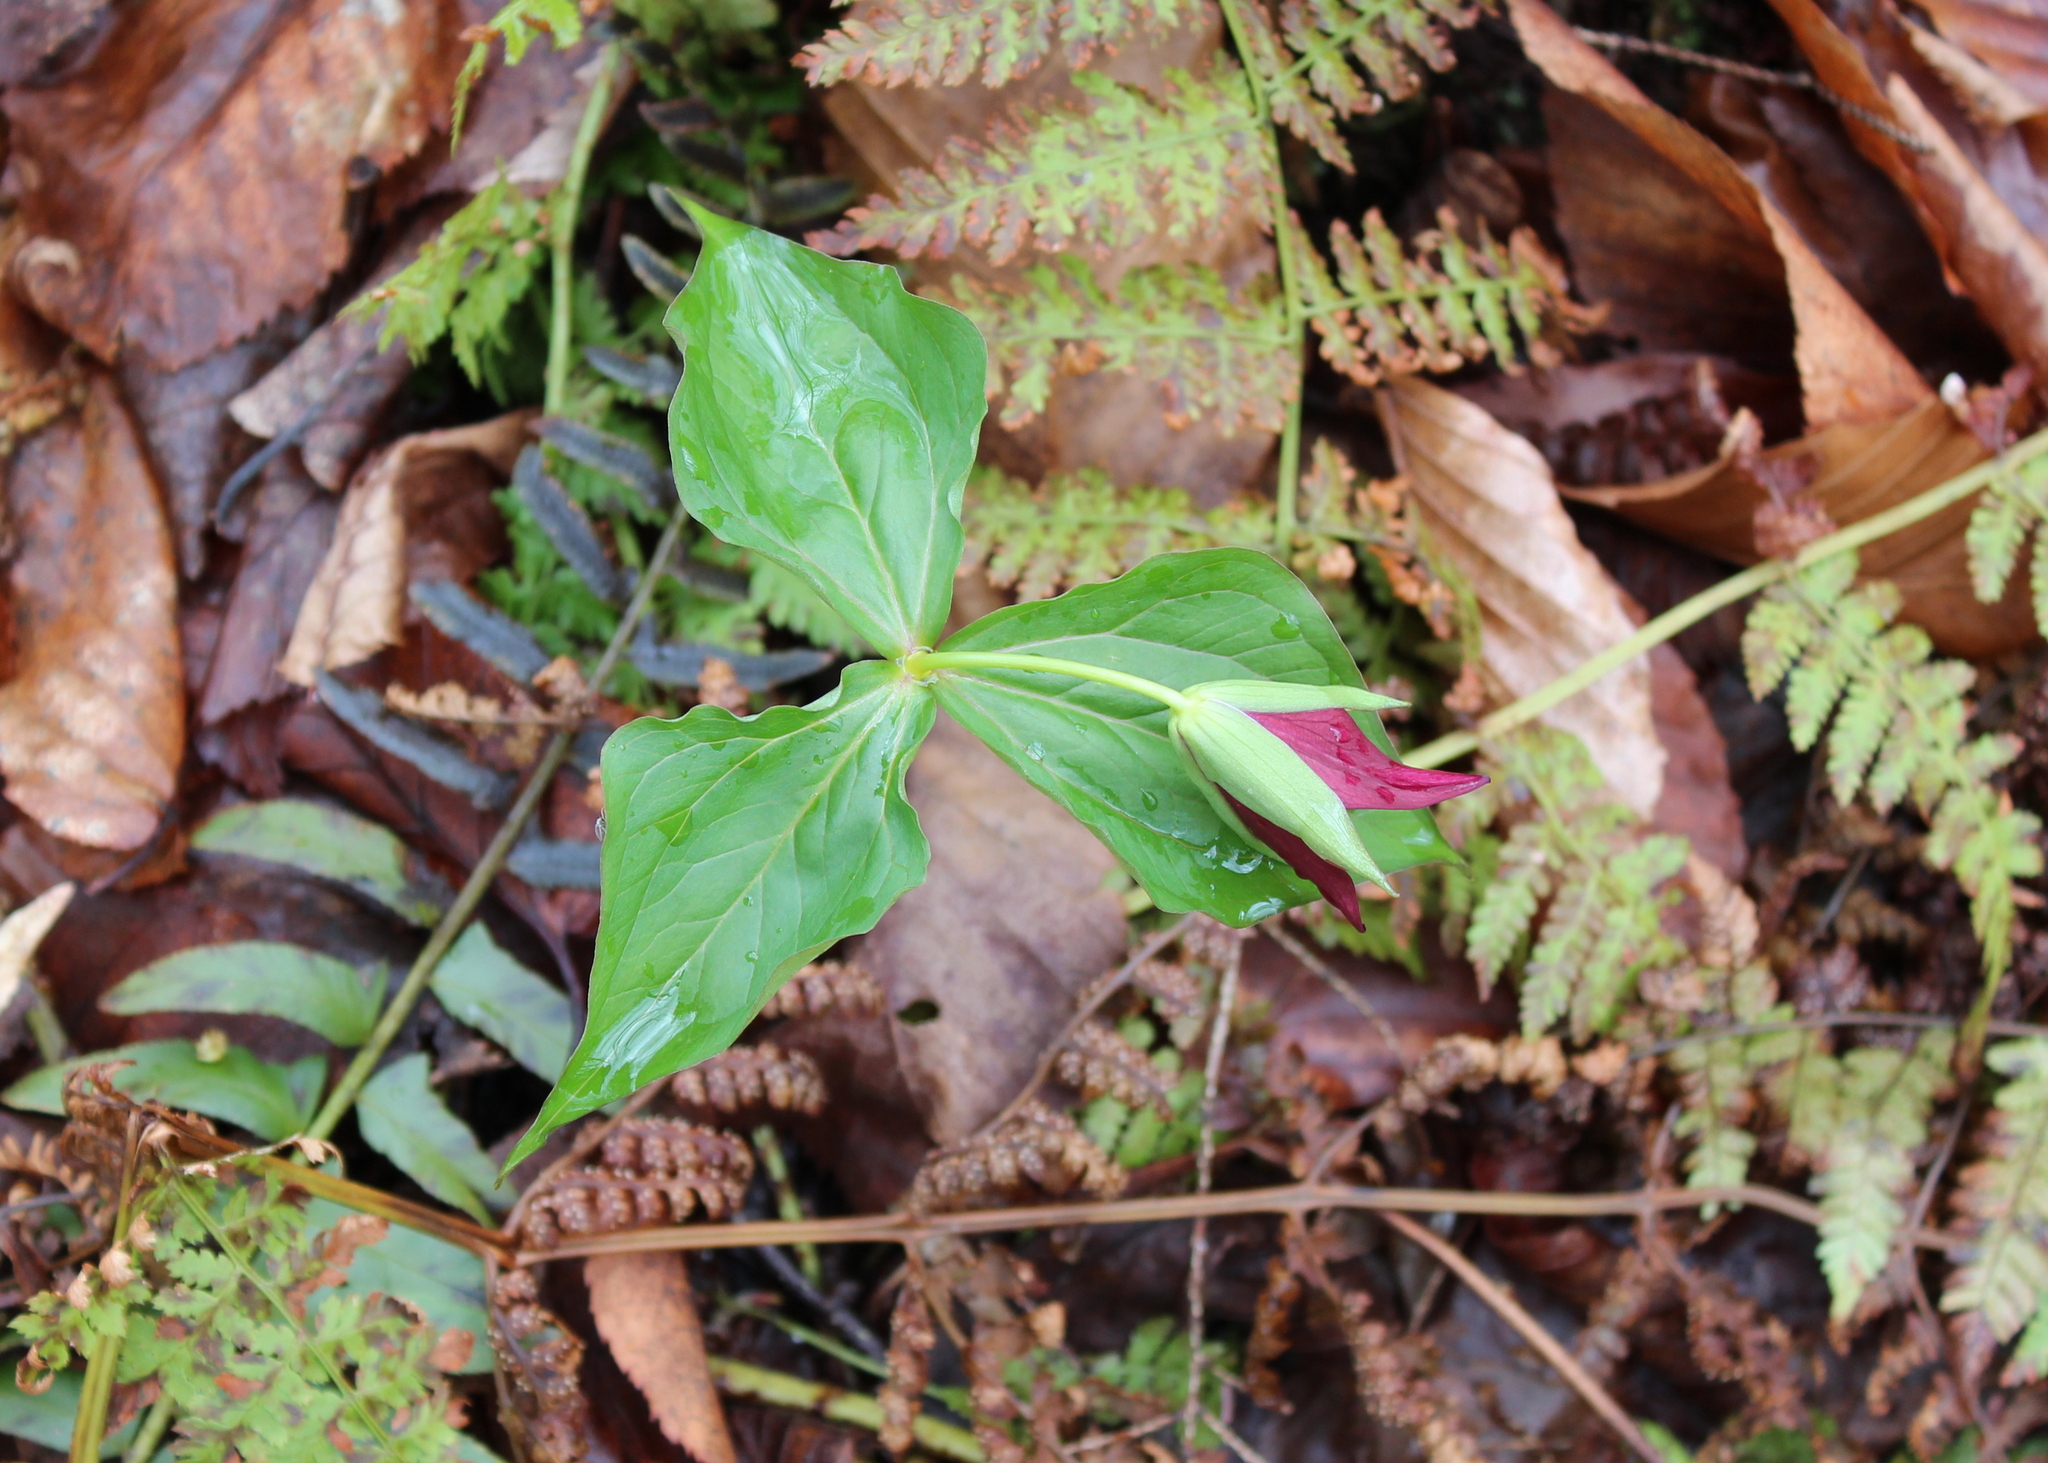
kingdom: Plantae
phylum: Tracheophyta
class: Liliopsida
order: Liliales
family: Melanthiaceae
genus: Trillium
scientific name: Trillium erectum
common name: Purple trillium
